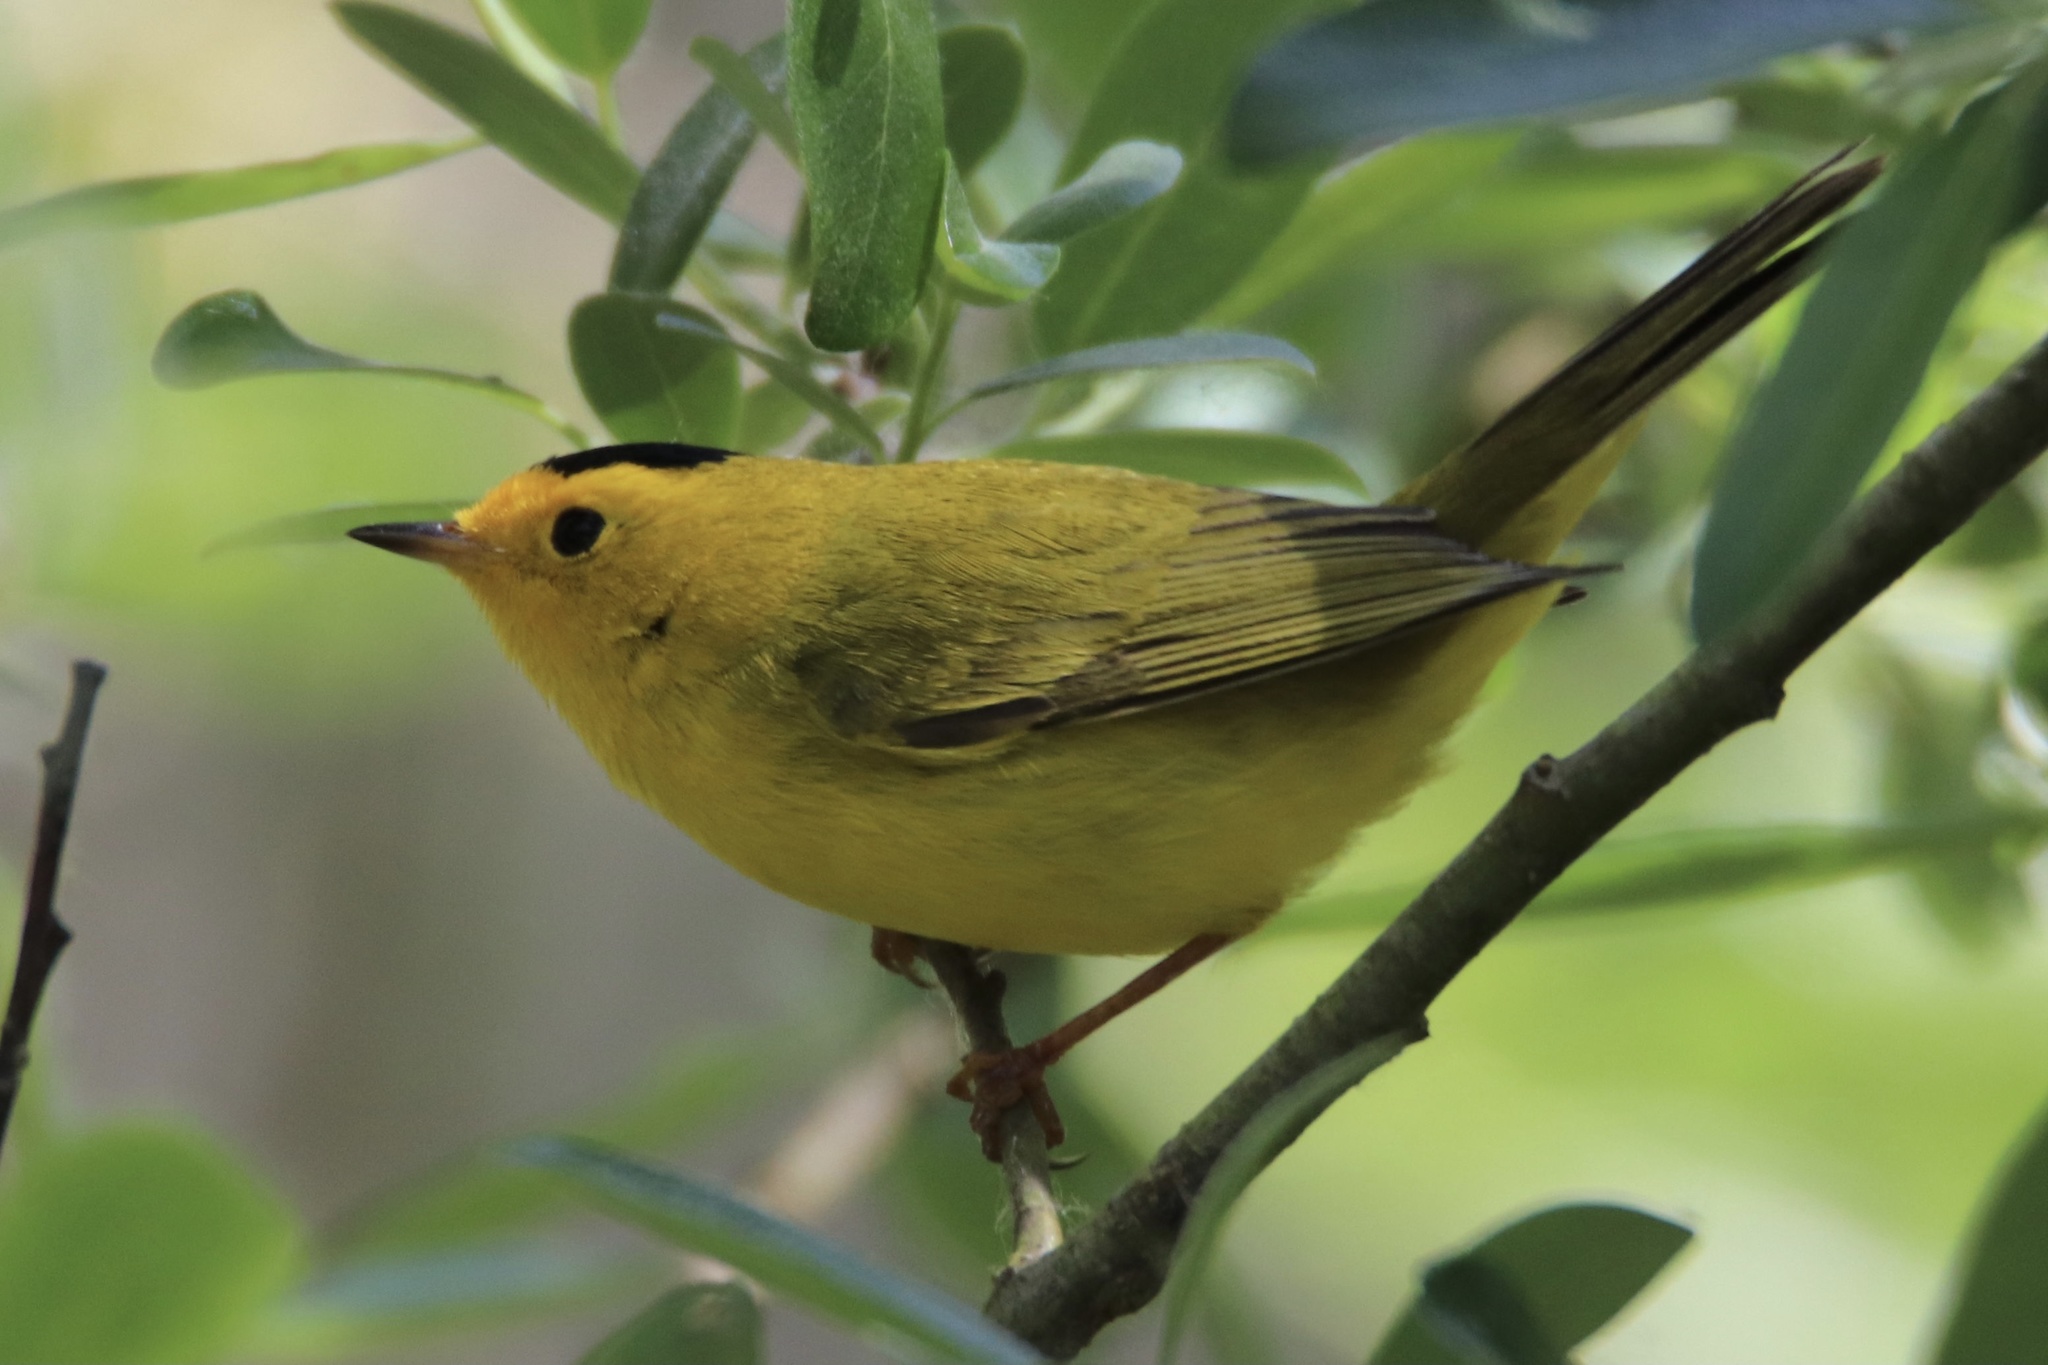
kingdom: Animalia
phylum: Chordata
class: Aves
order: Passeriformes
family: Parulidae
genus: Cardellina
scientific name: Cardellina pusilla
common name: Wilson's warbler
